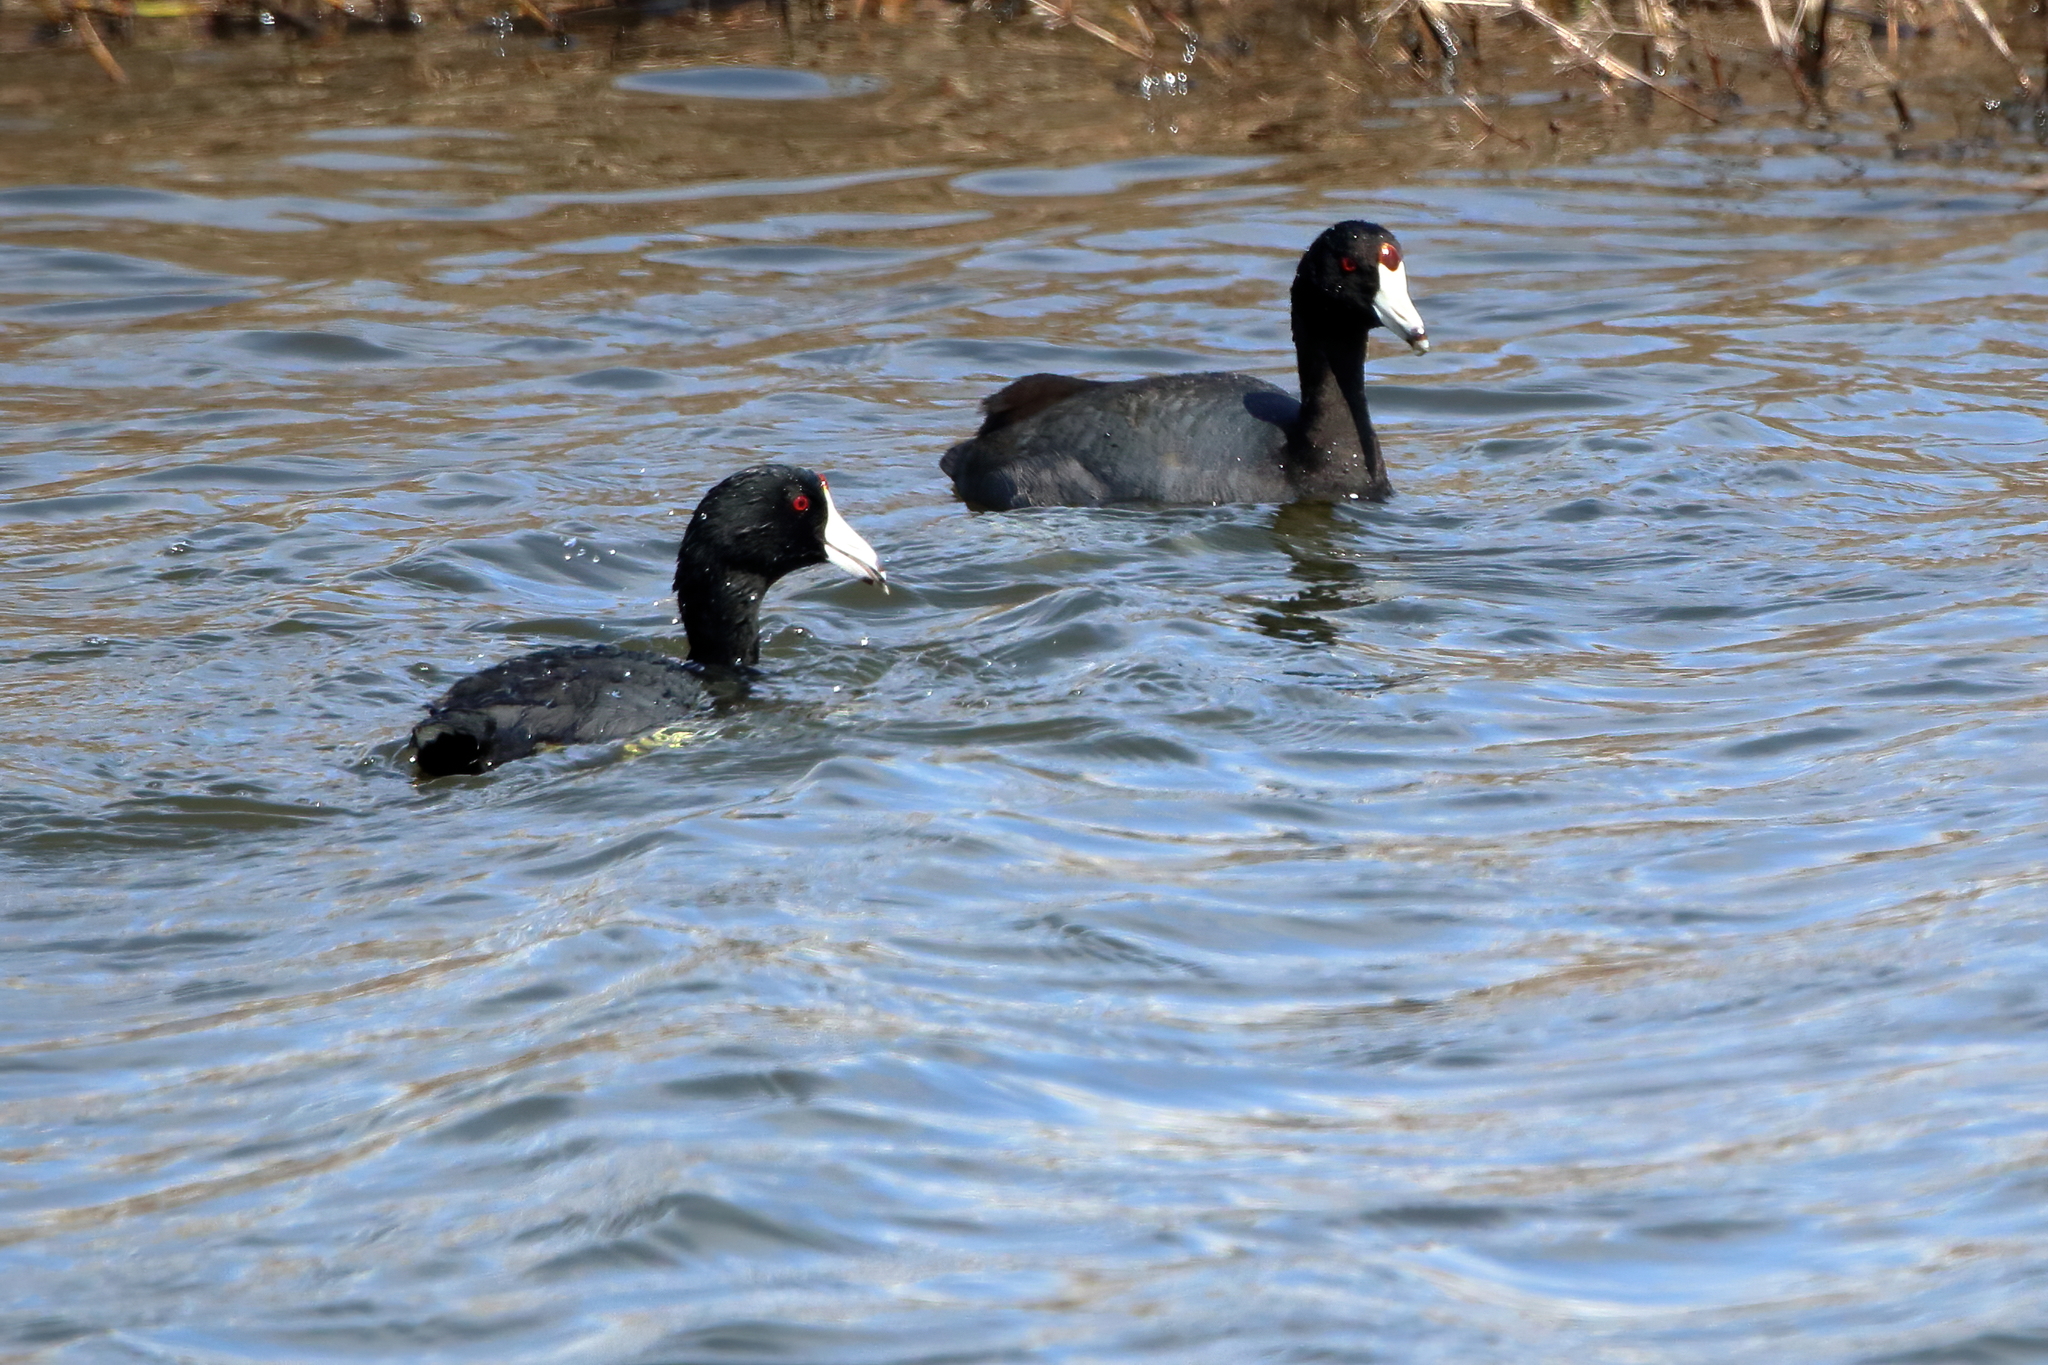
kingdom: Animalia
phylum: Chordata
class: Aves
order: Gruiformes
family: Rallidae
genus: Fulica
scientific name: Fulica americana
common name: American coot
